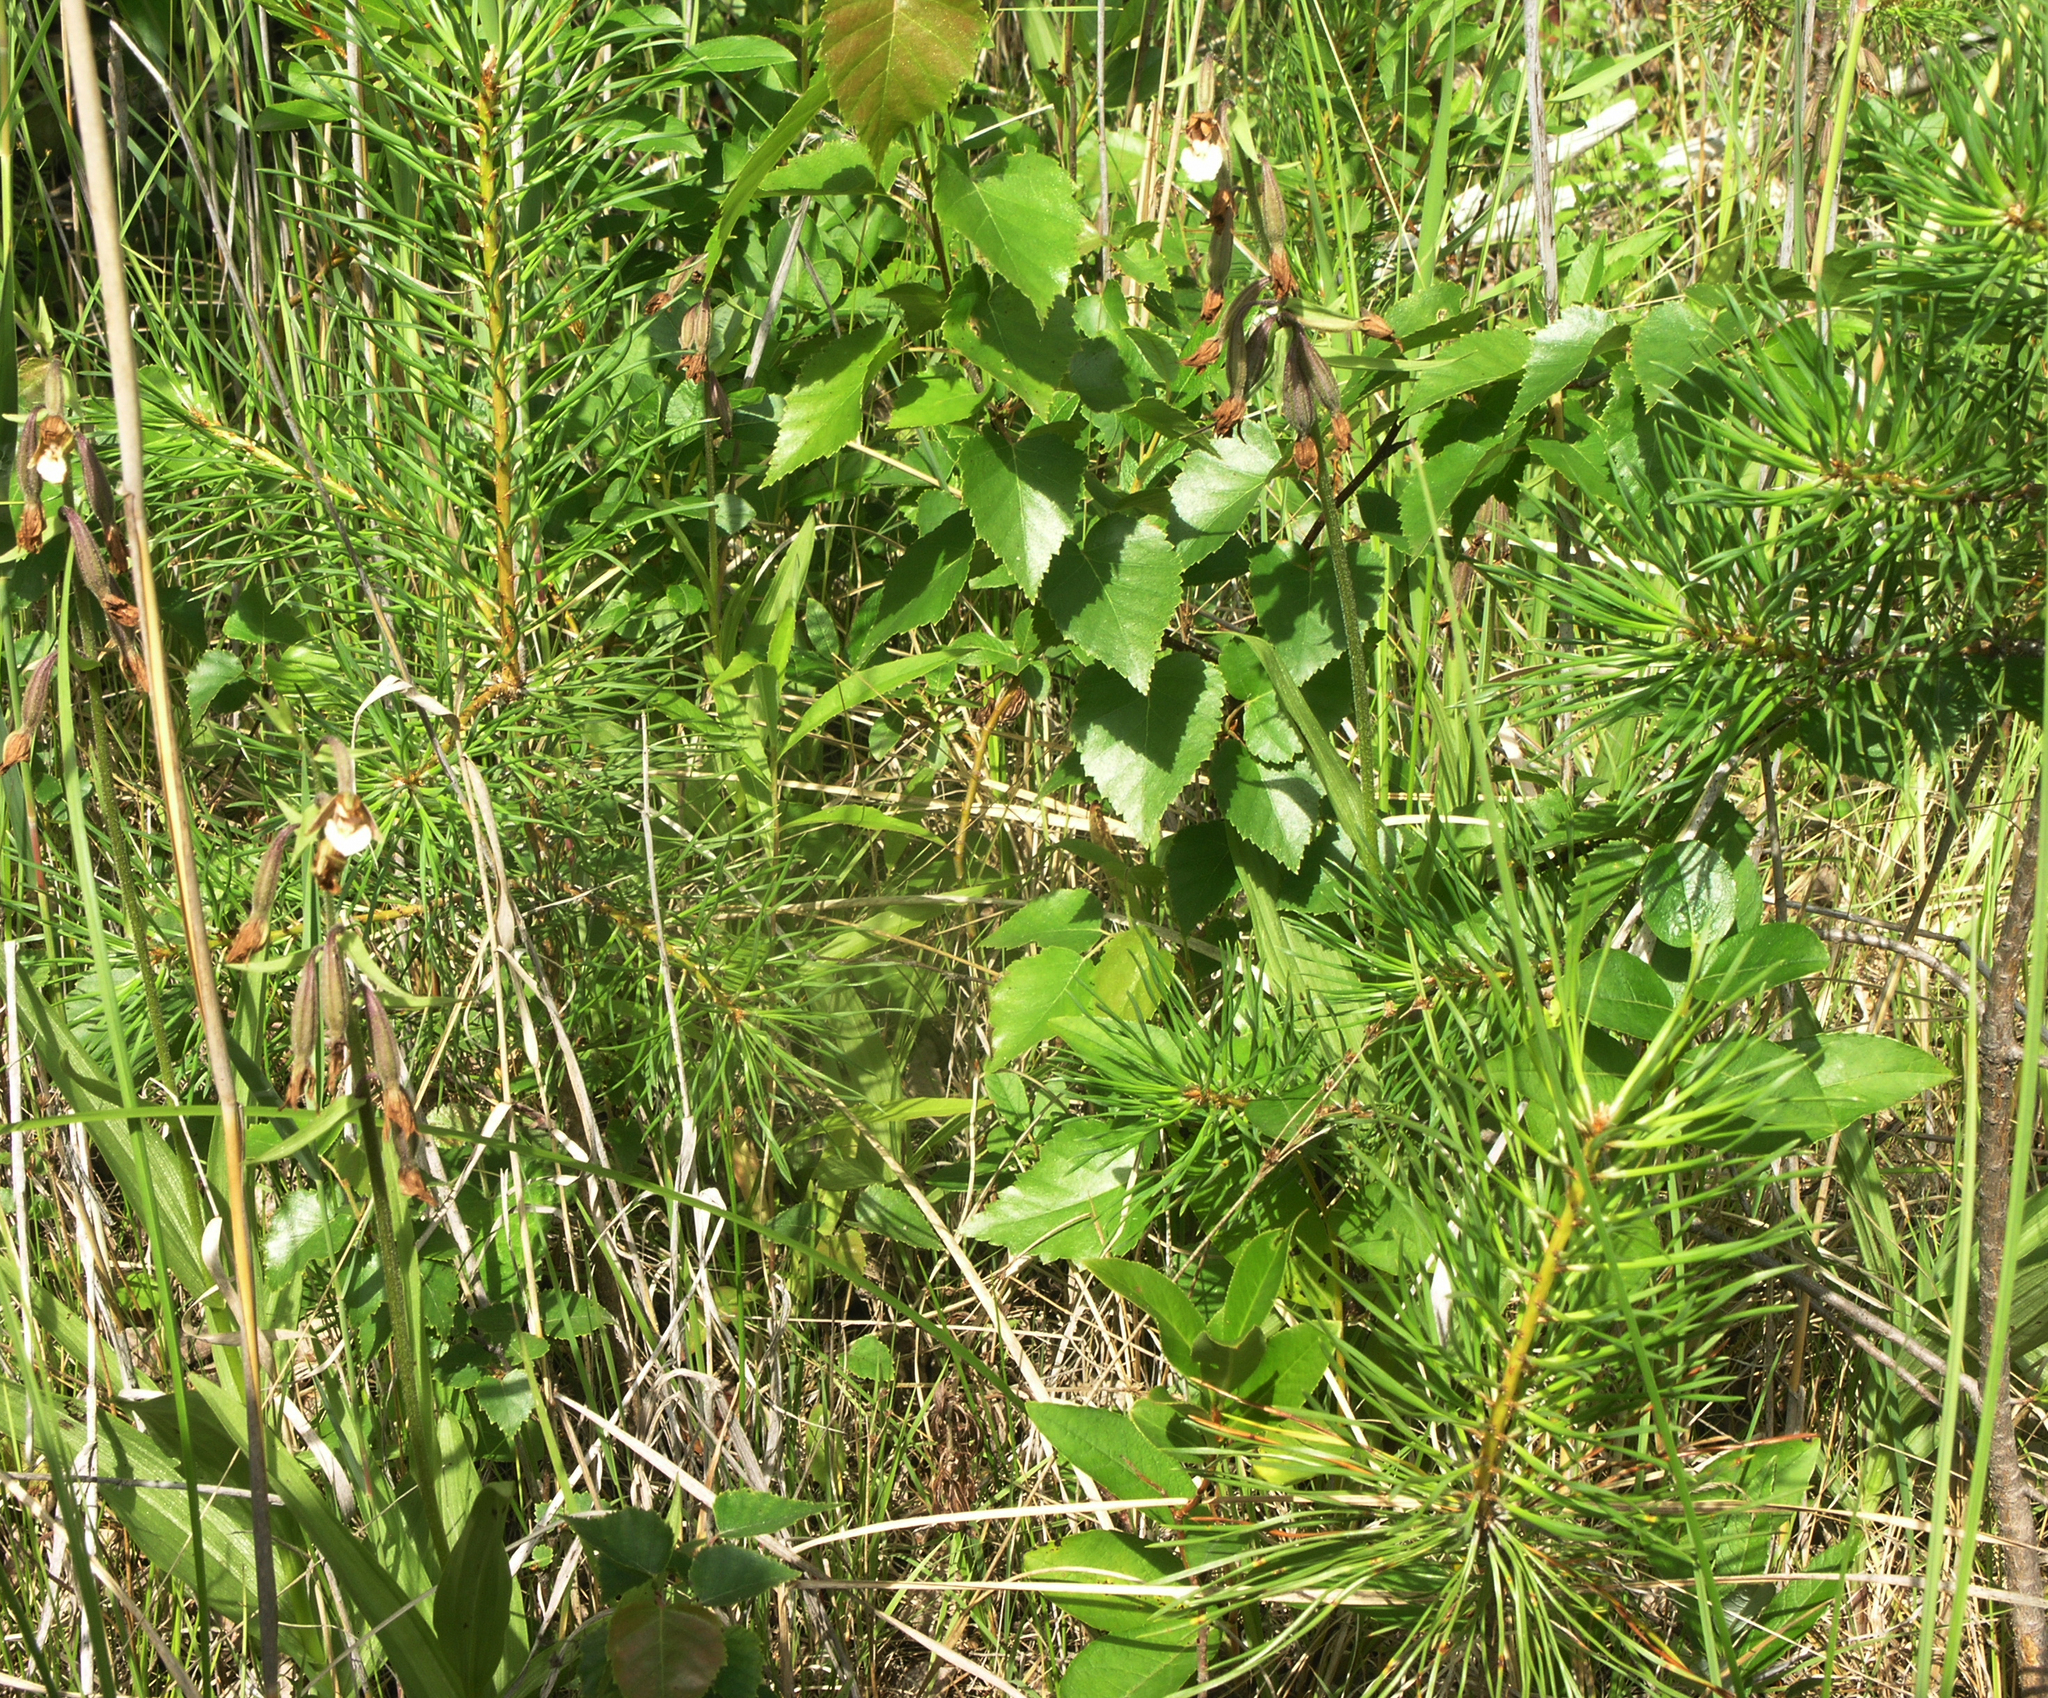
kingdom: Plantae
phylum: Tracheophyta
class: Pinopsida
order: Pinales
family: Pinaceae
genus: Pinus
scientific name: Pinus sylvestris
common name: Scots pine
